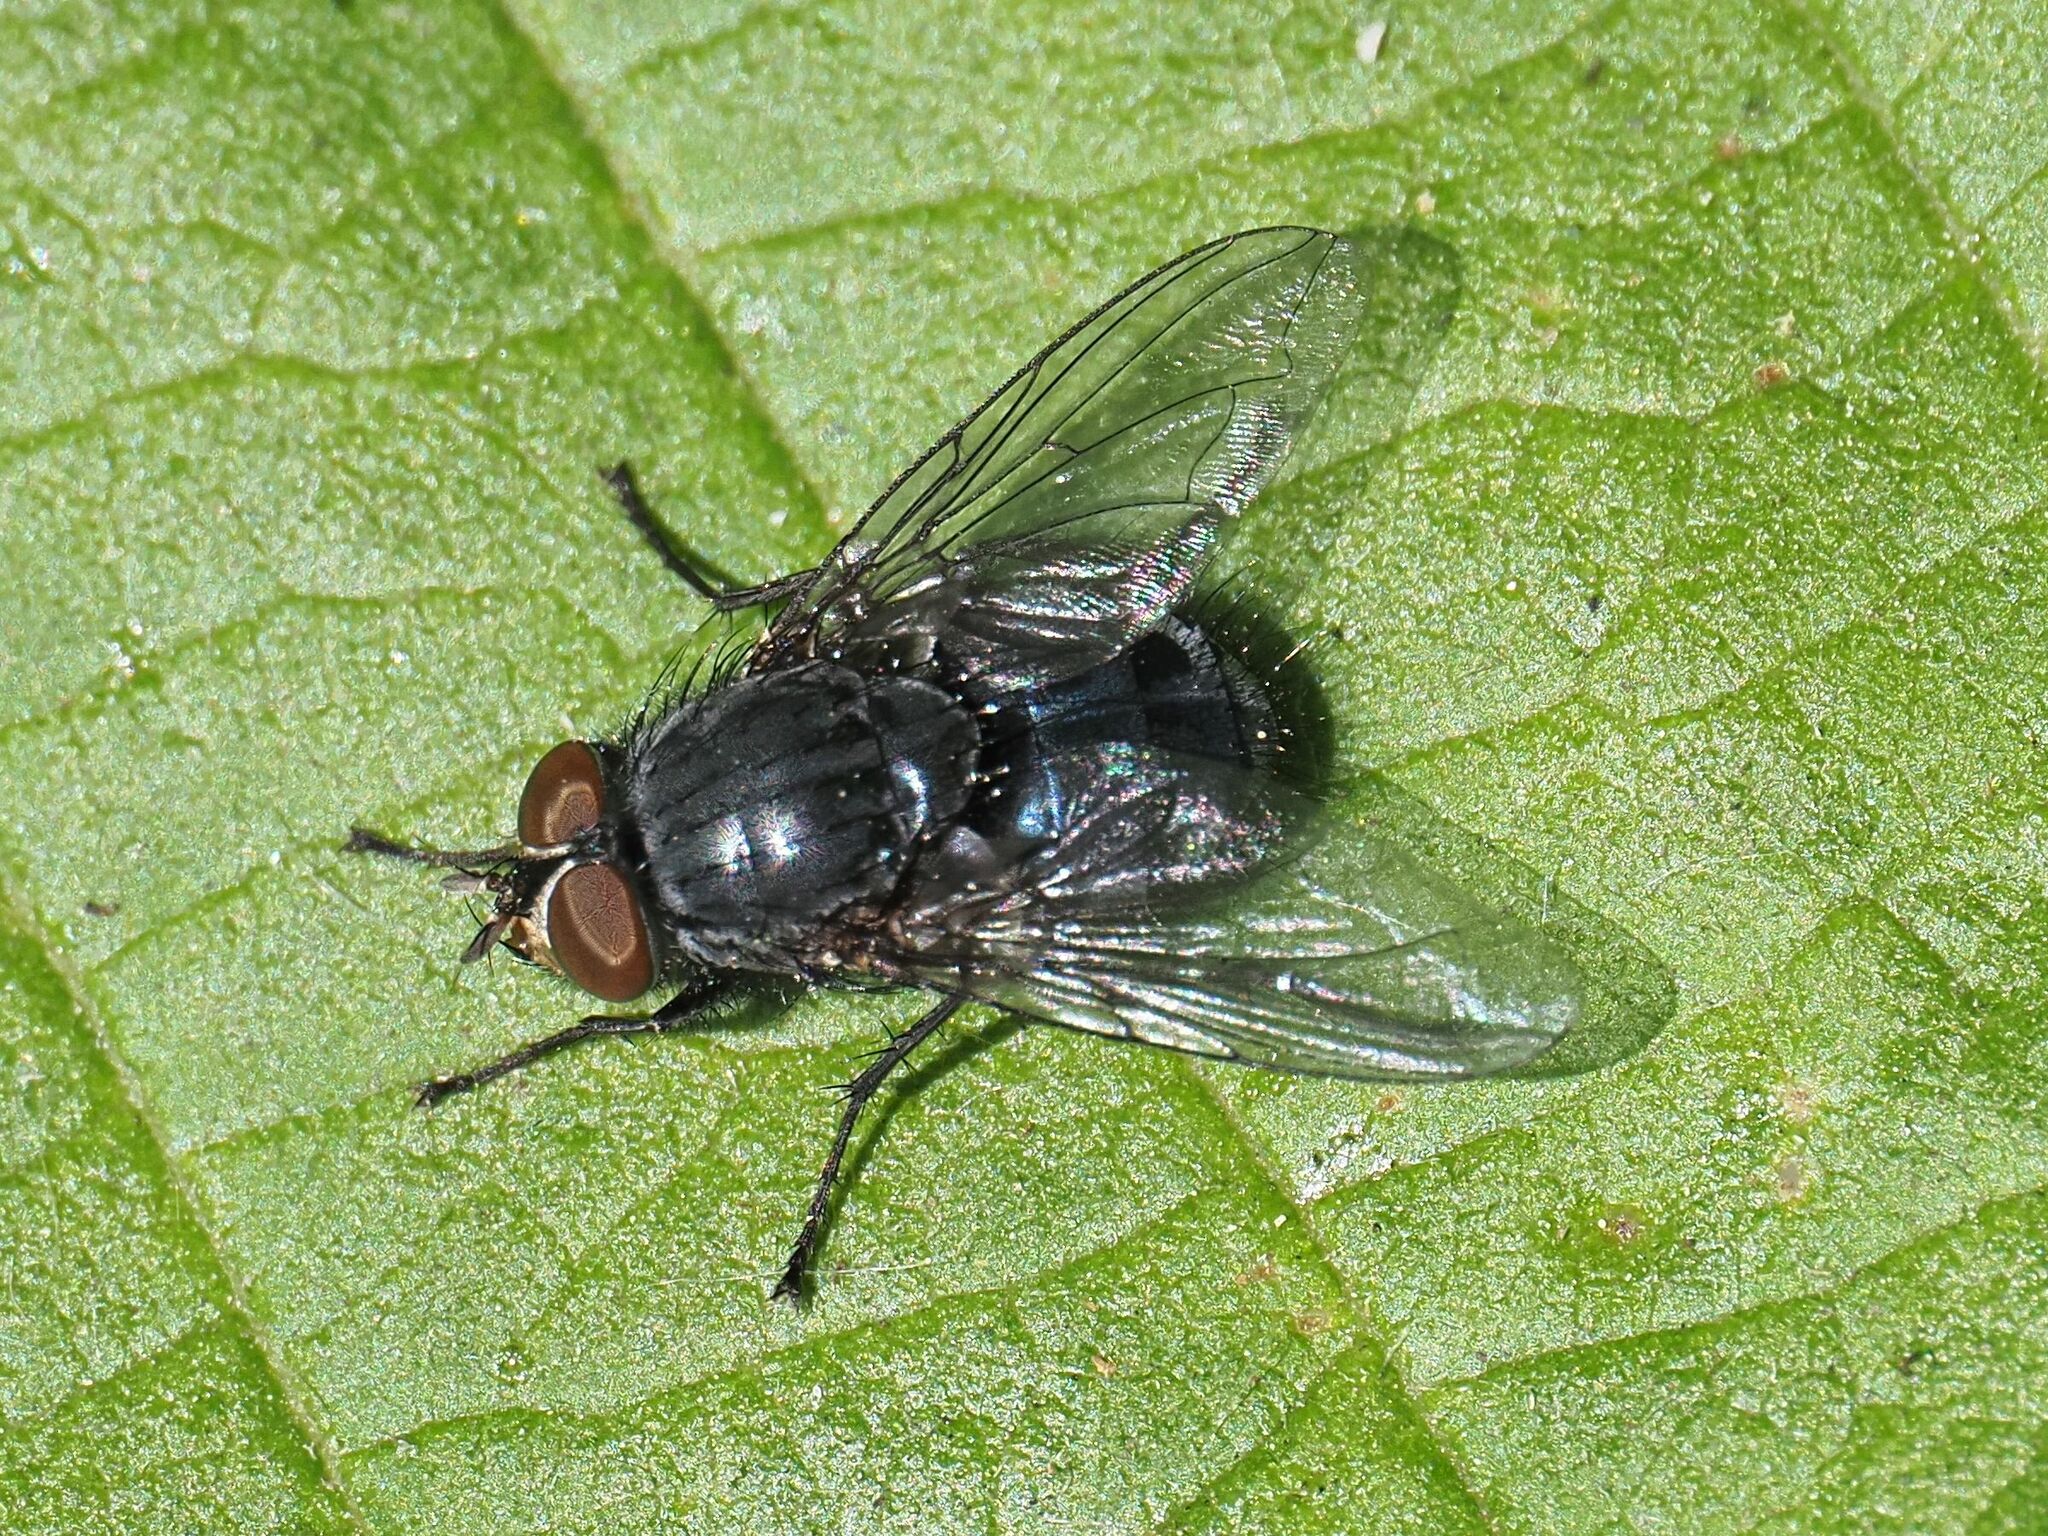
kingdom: Animalia
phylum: Arthropoda
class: Insecta
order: Diptera
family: Calliphoridae
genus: Calliphora
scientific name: Calliphora vicina
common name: Common blow flie
